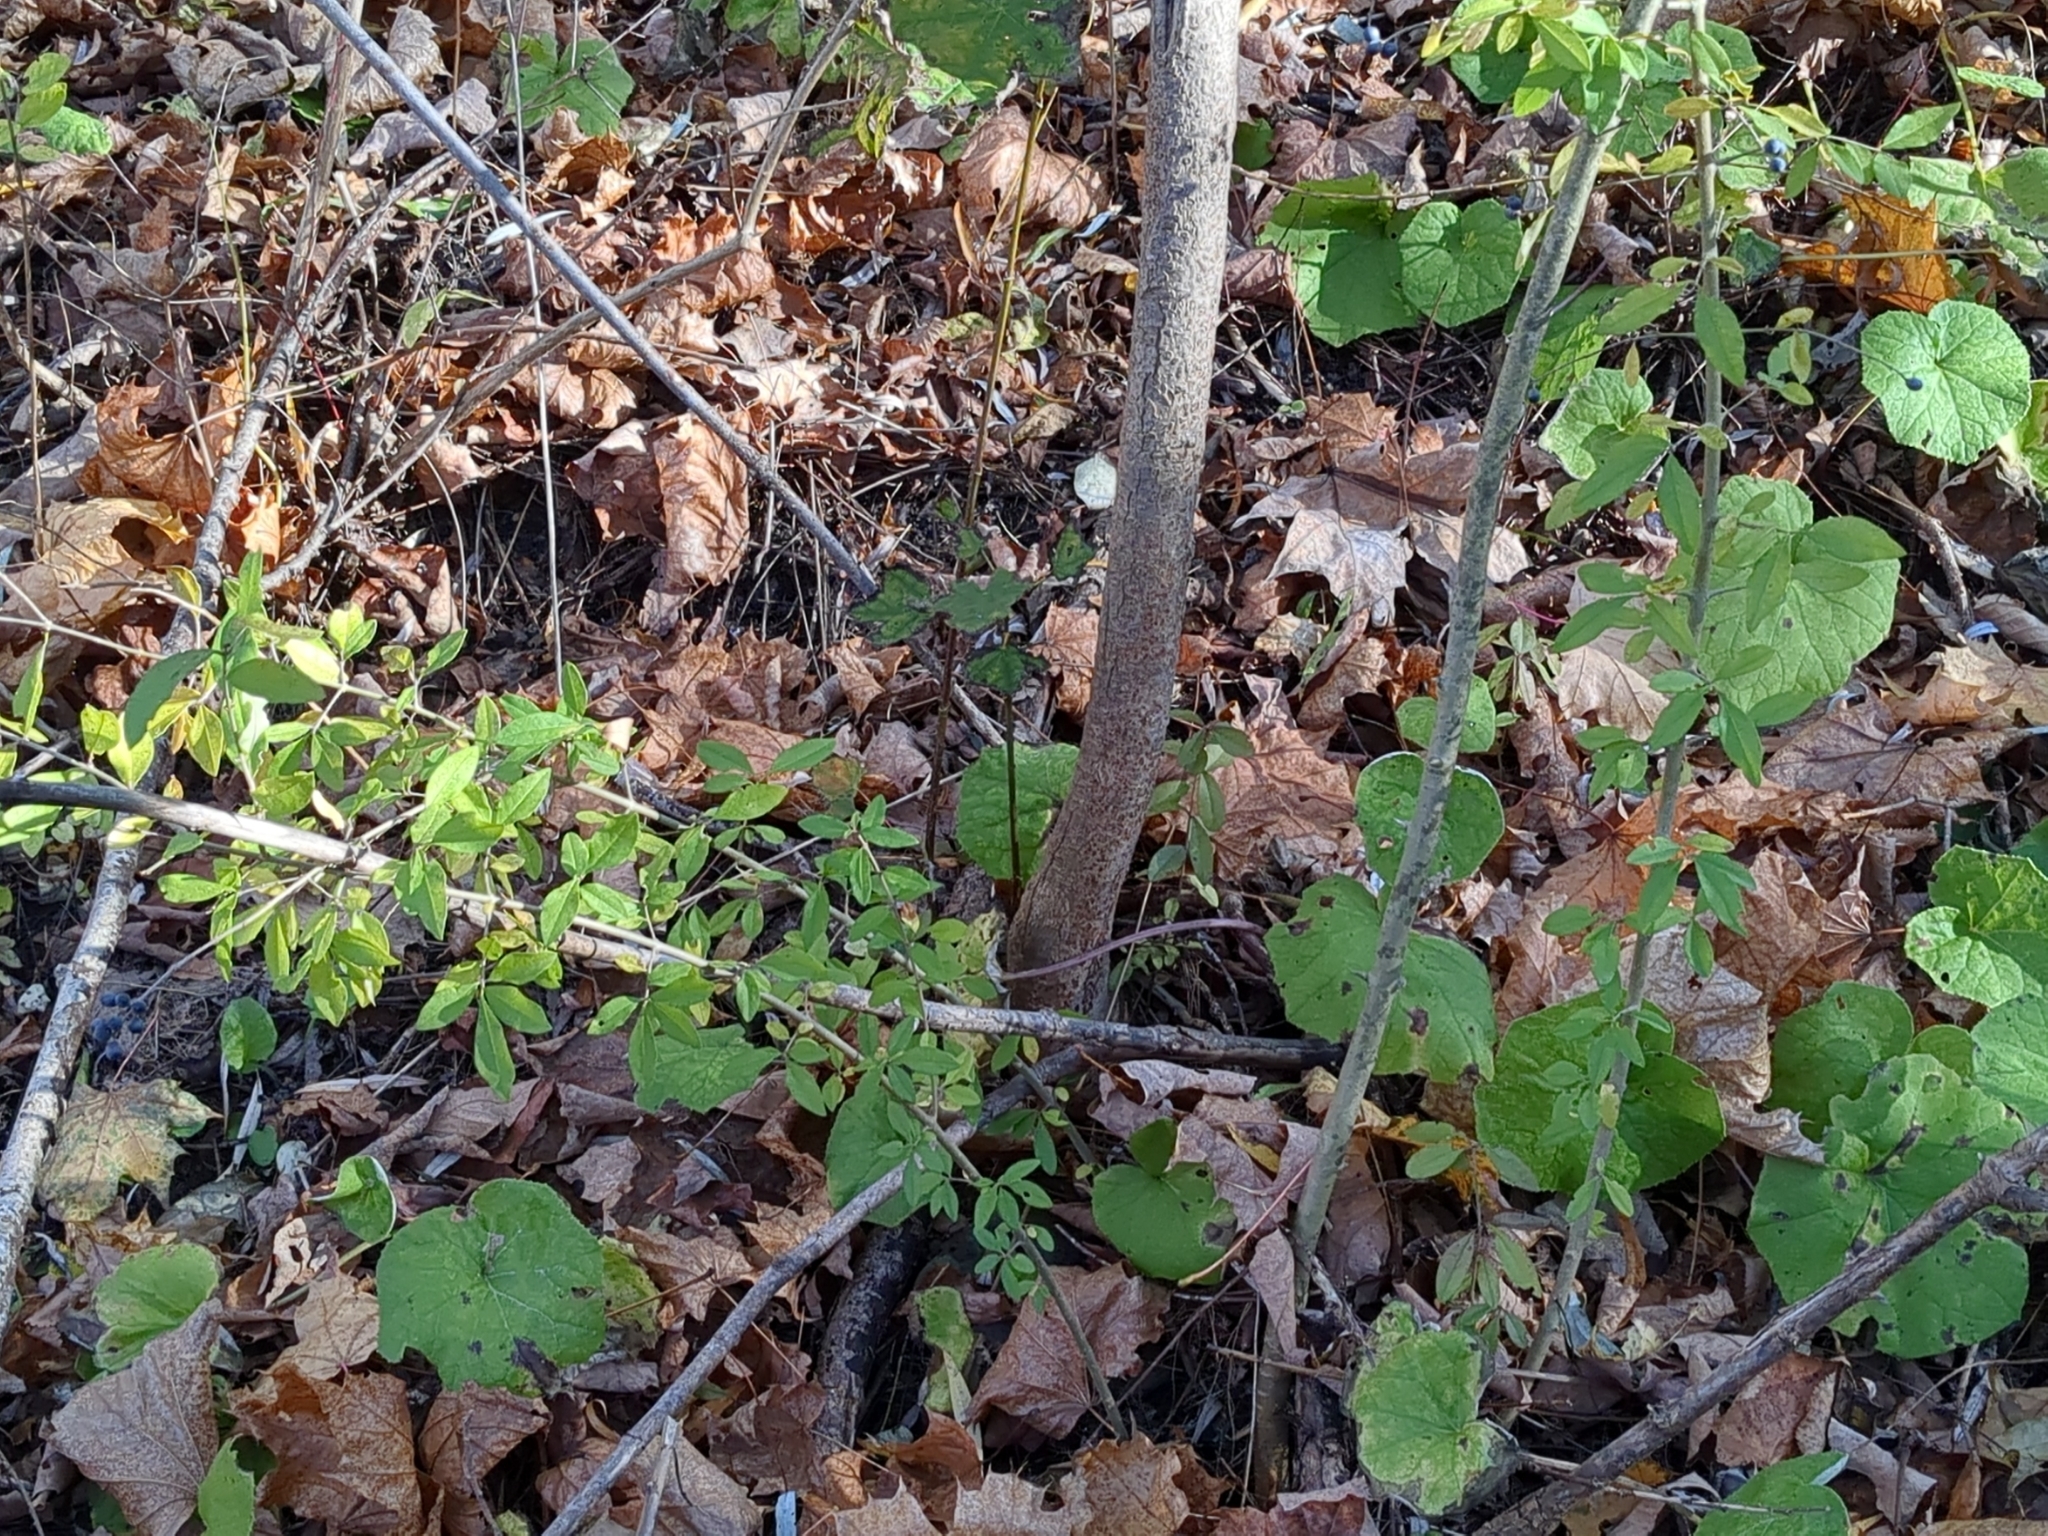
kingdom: Plantae
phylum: Tracheophyta
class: Magnoliopsida
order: Lamiales
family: Oleaceae
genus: Ligustrum
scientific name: Ligustrum obtusifolium
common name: Border privet
